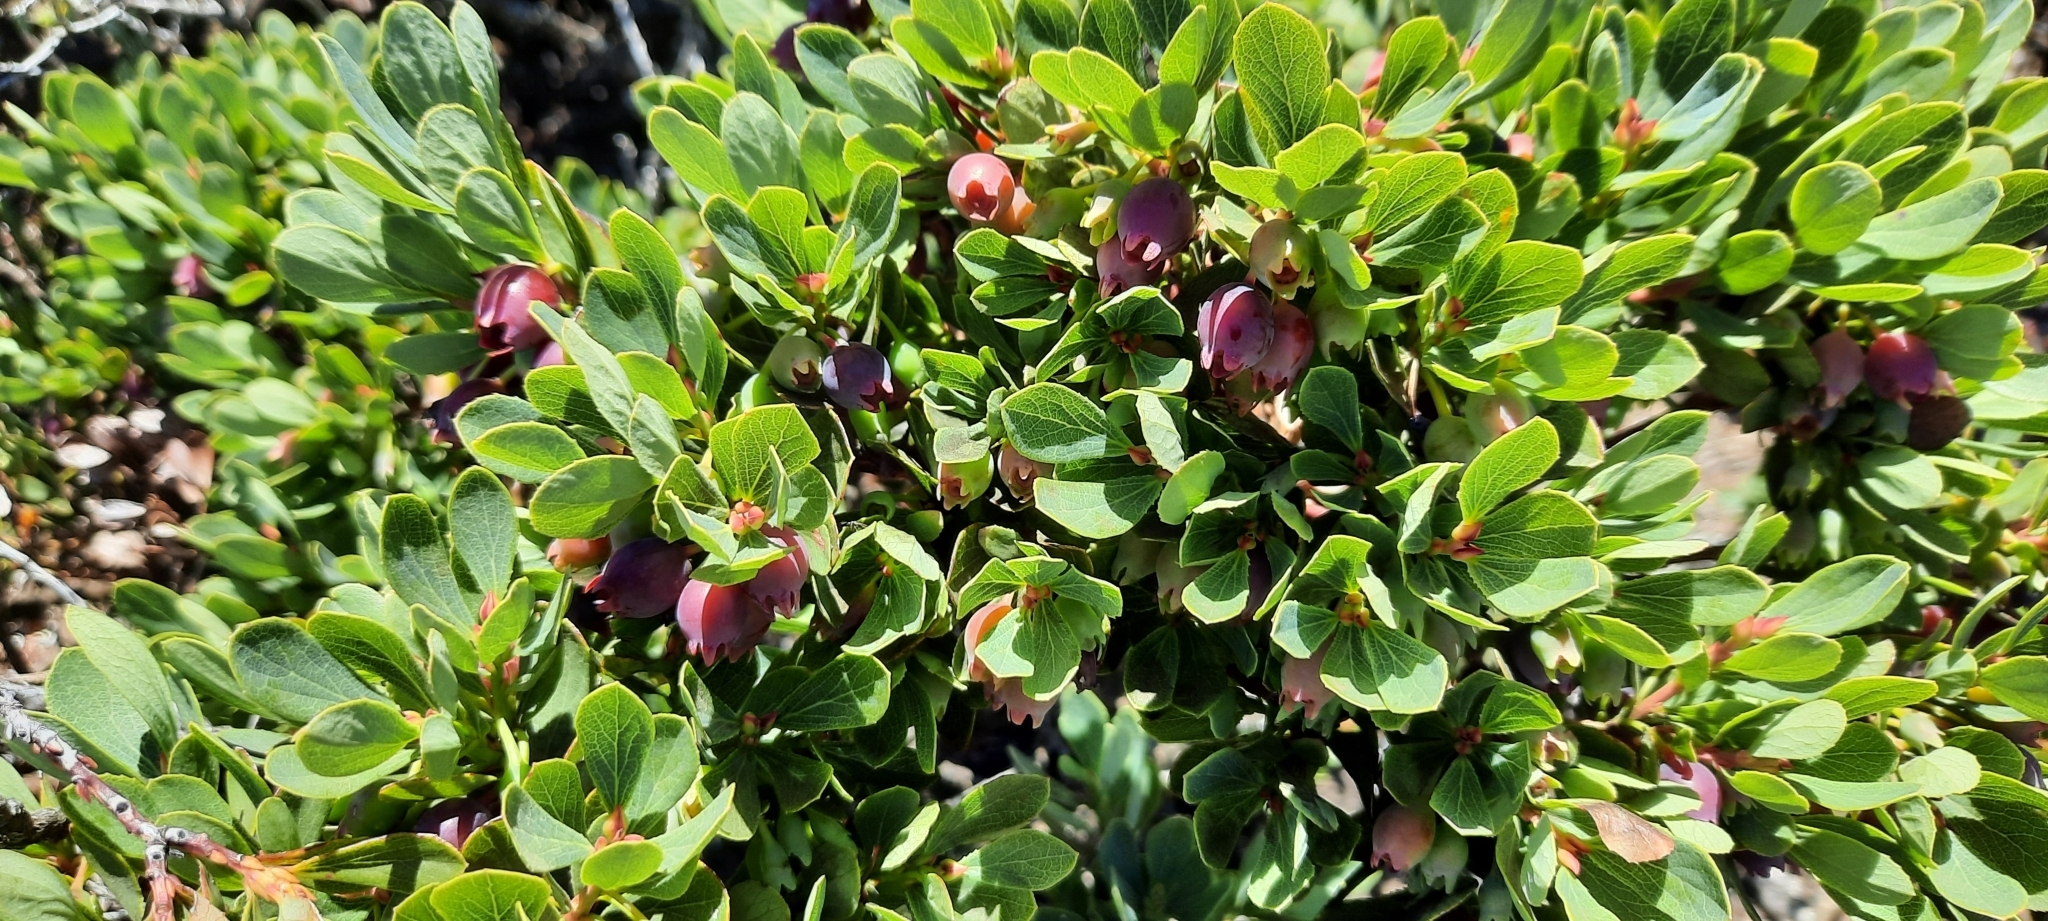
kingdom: Plantae
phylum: Tracheophyta
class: Magnoliopsida
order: Ericales
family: Ericaceae
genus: Vaccinium
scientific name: Vaccinium reticulatum
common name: Ohelo
